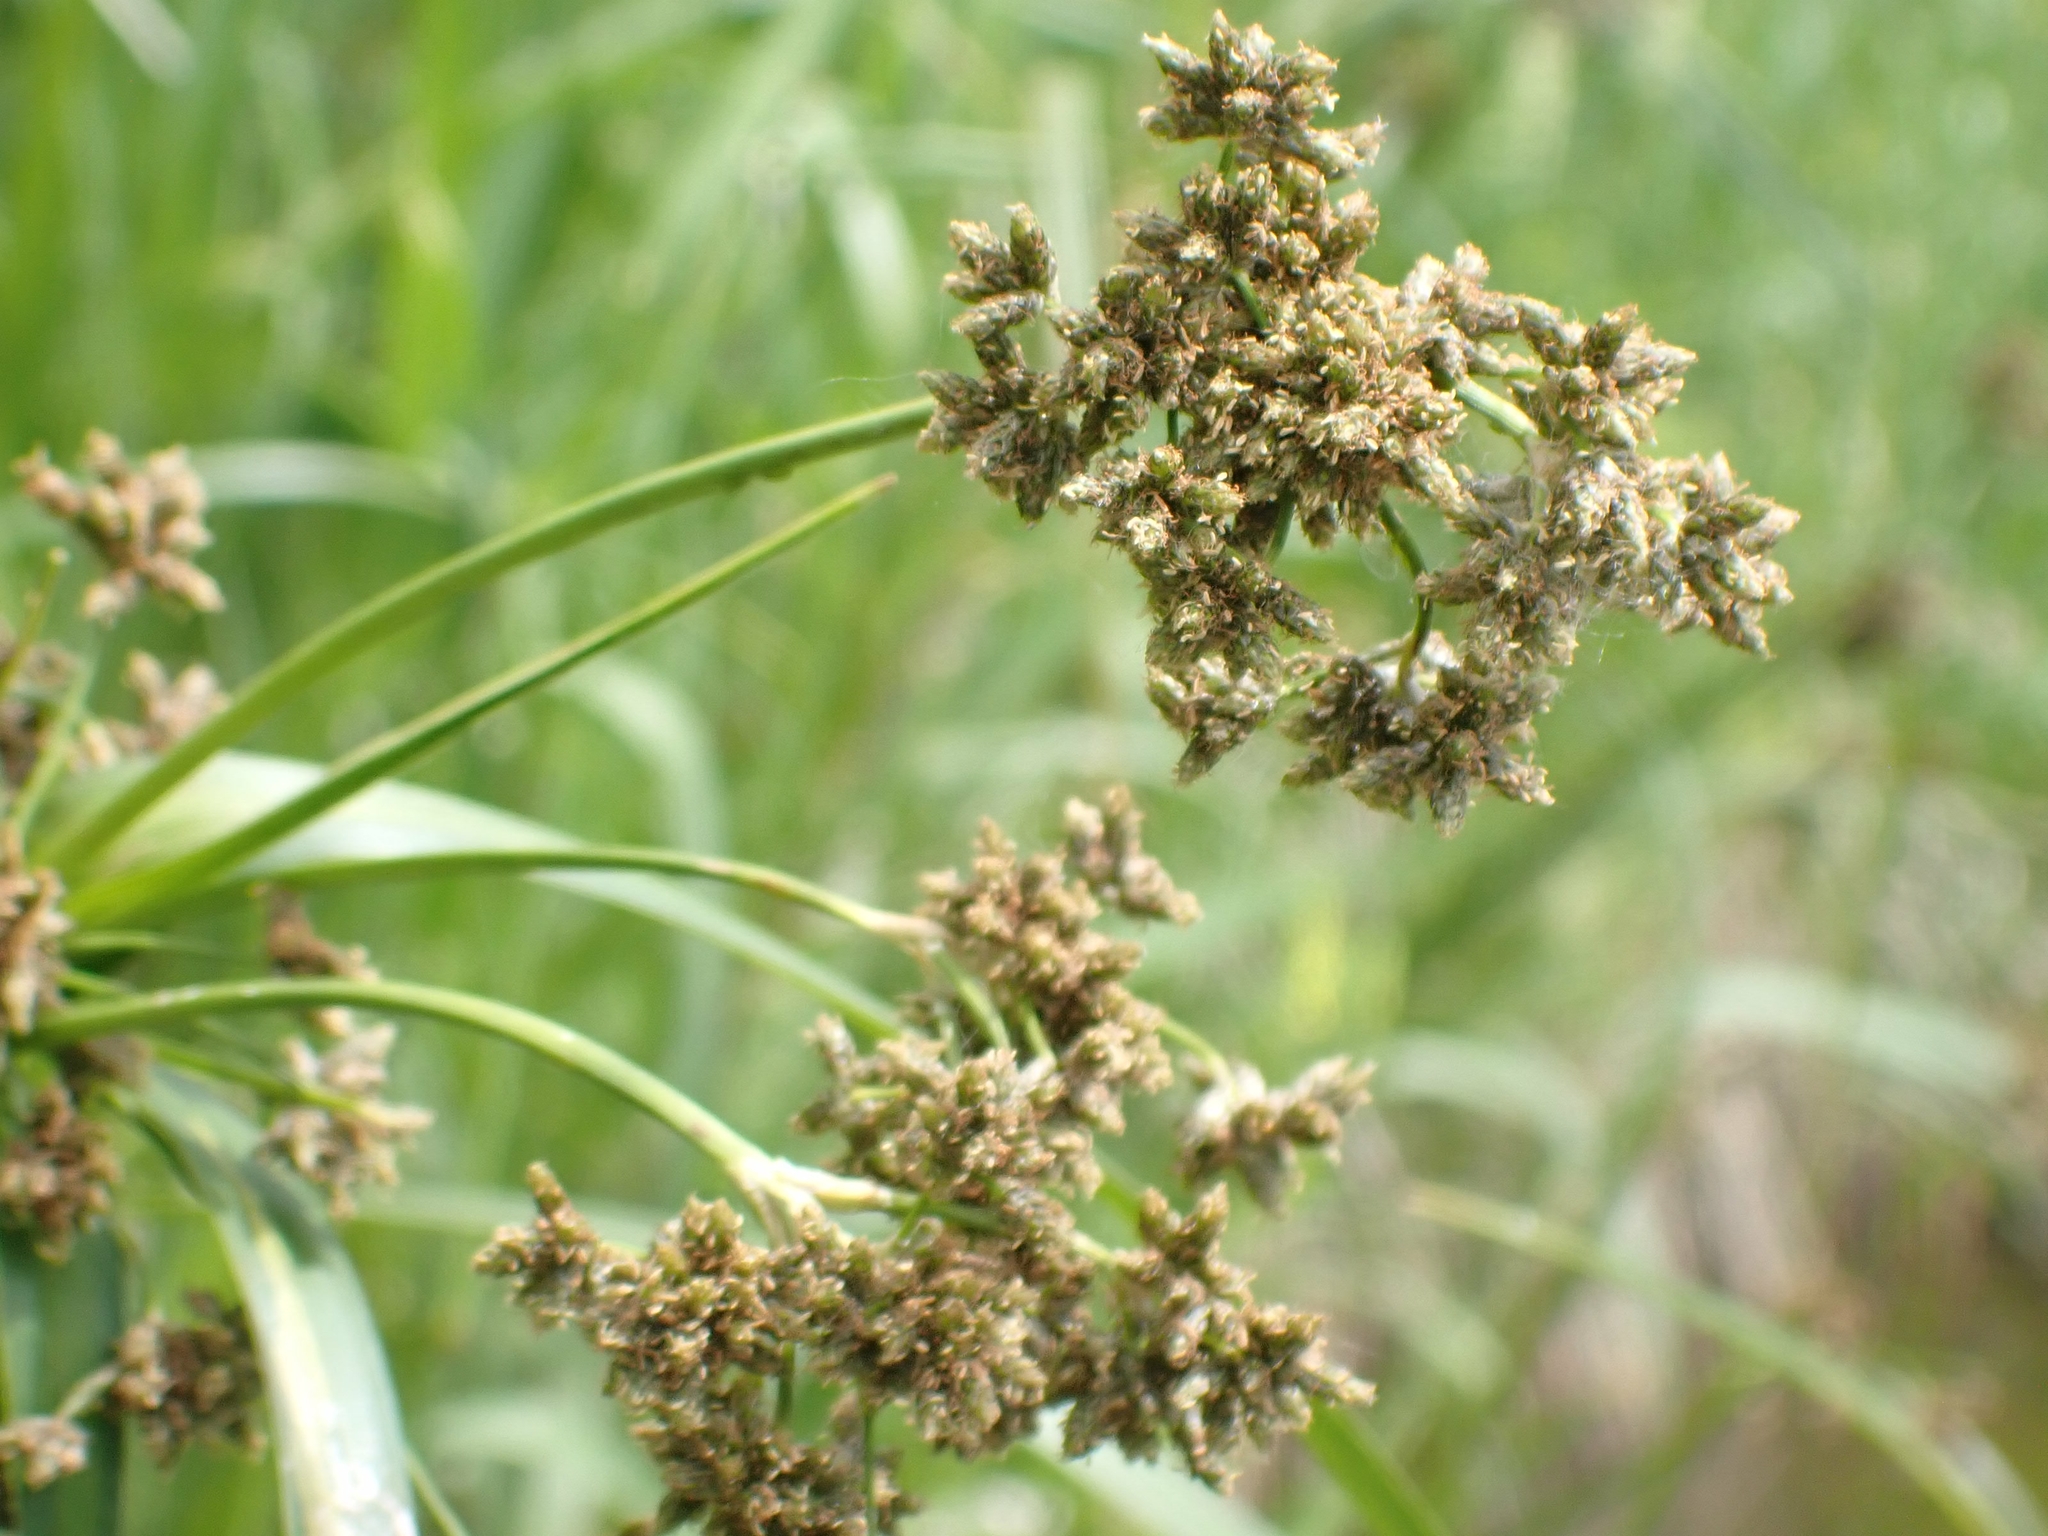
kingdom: Plantae
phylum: Tracheophyta
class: Liliopsida
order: Poales
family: Cyperaceae
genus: Scirpus
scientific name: Scirpus microcarpus
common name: Panicled bulrush
